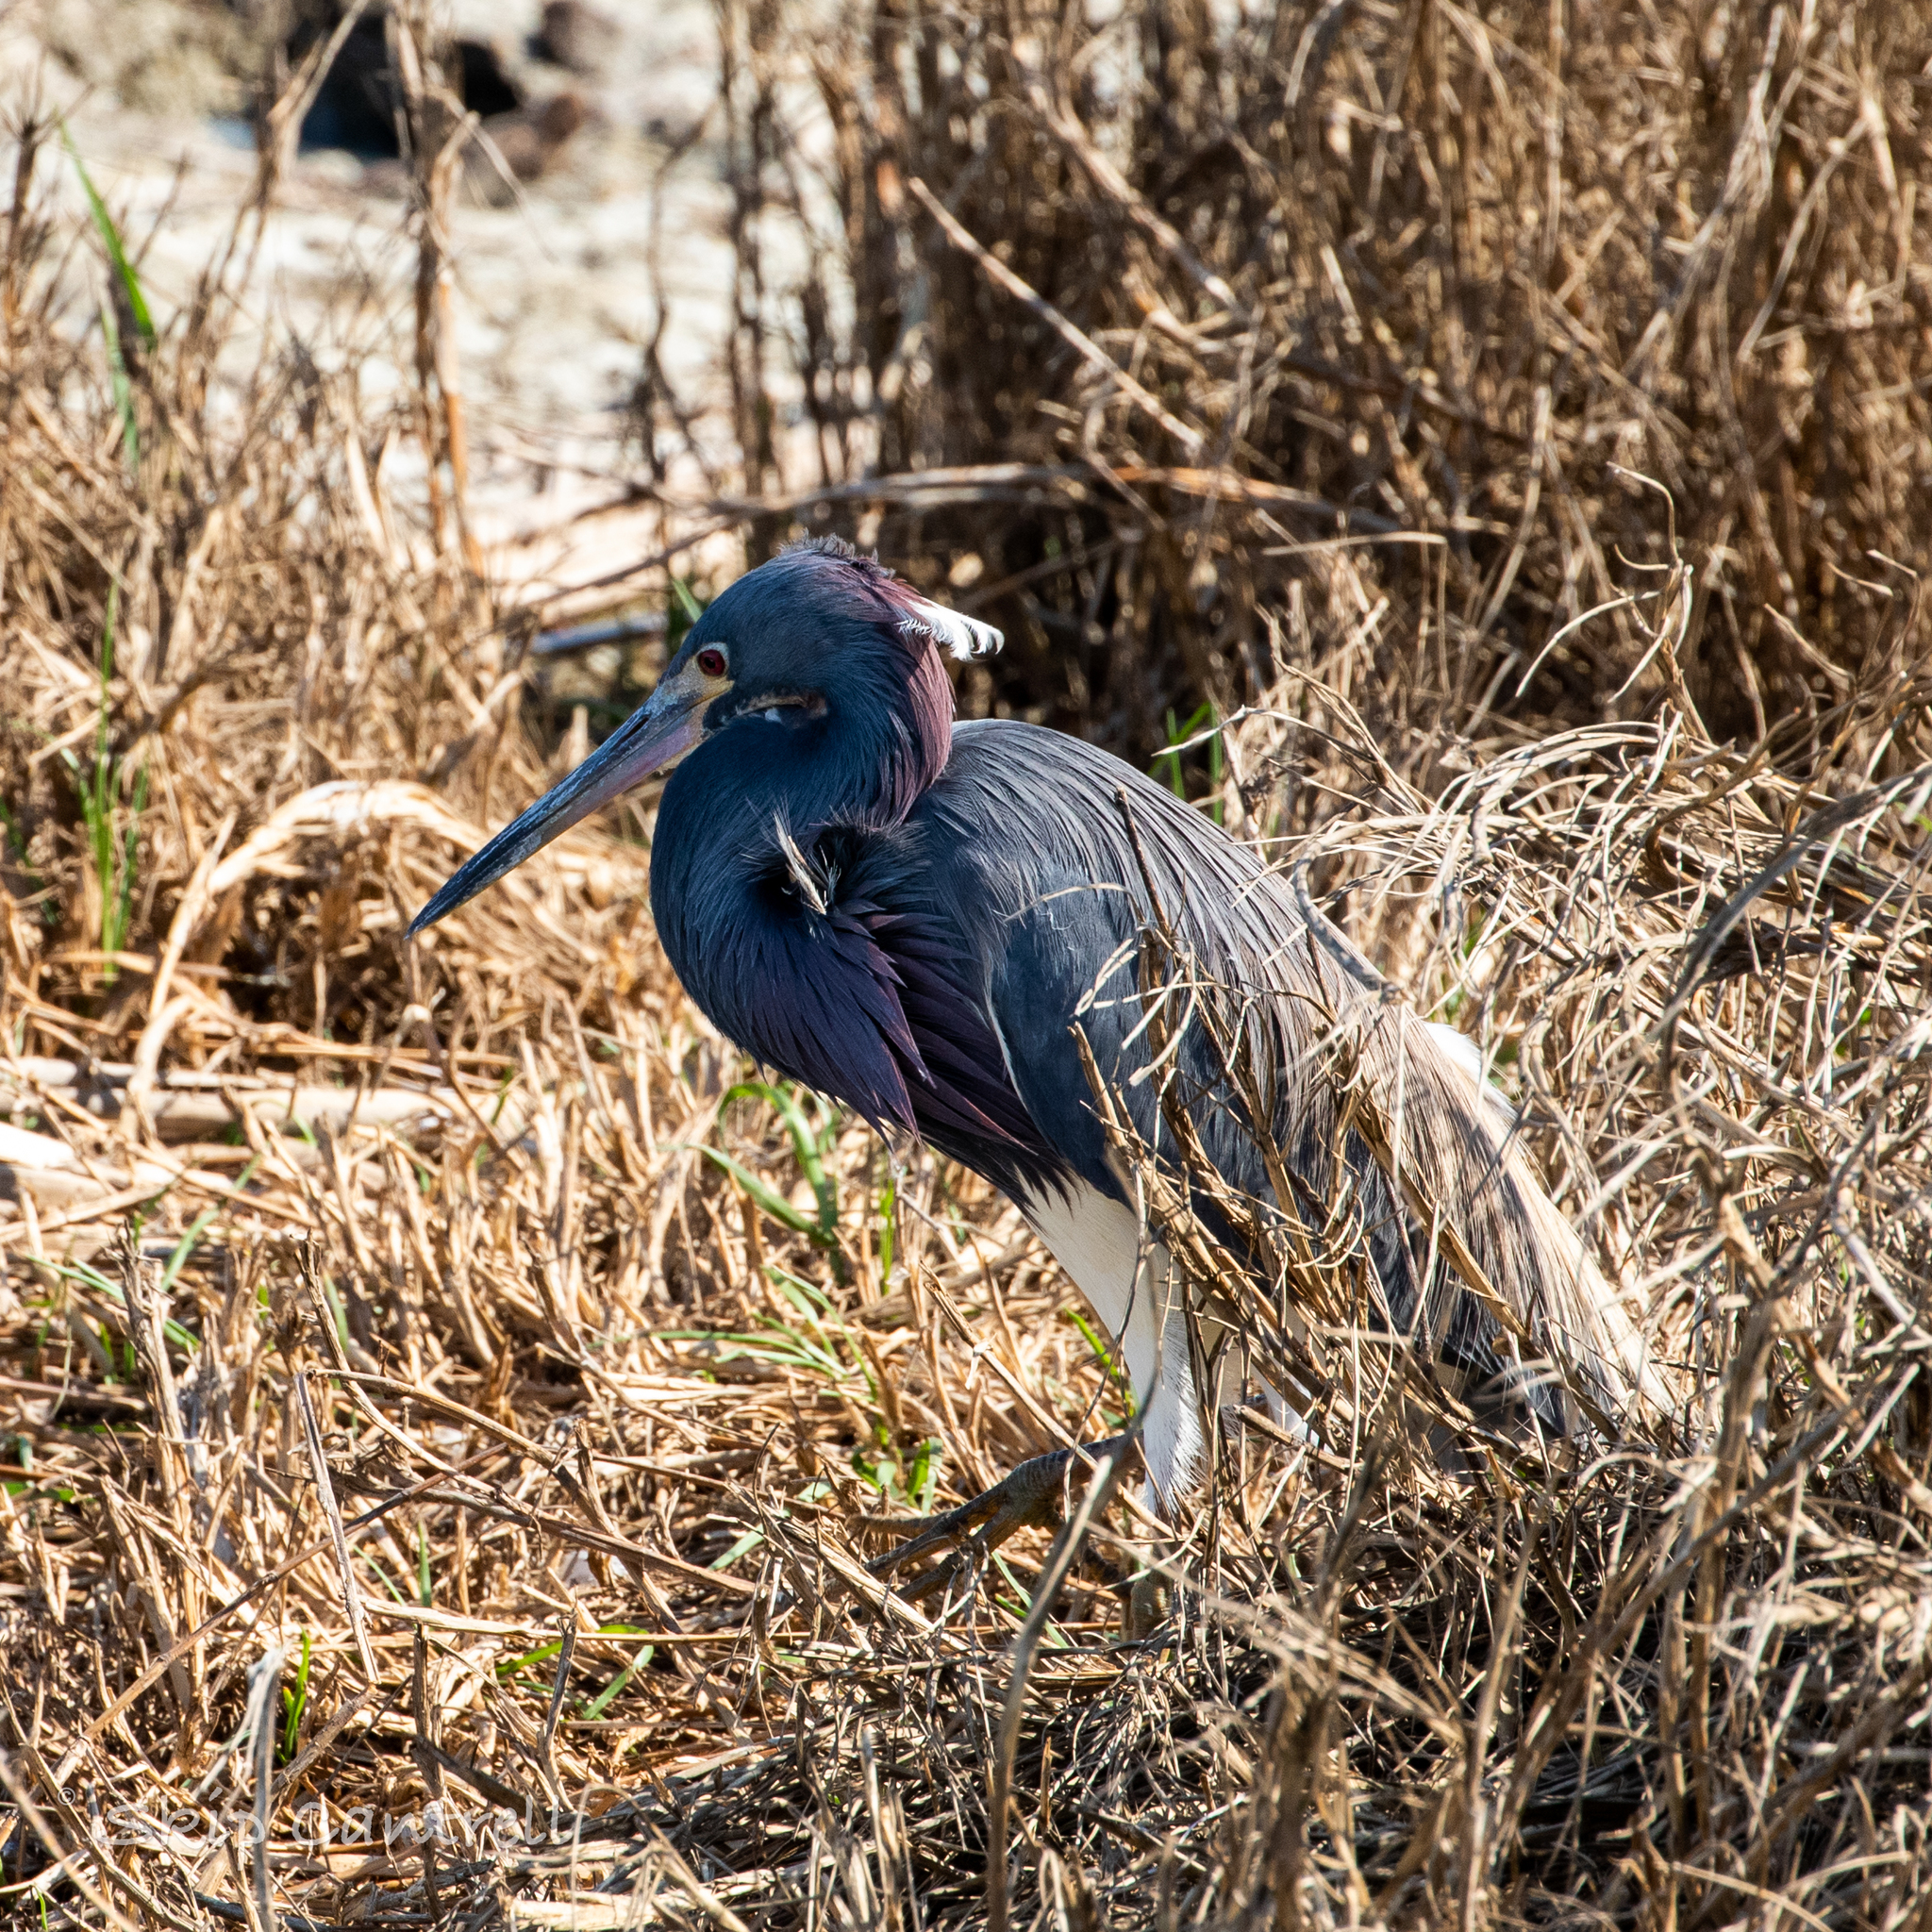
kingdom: Animalia
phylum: Chordata
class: Aves
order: Pelecaniformes
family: Ardeidae
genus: Egretta
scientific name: Egretta tricolor
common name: Tricolored heron
